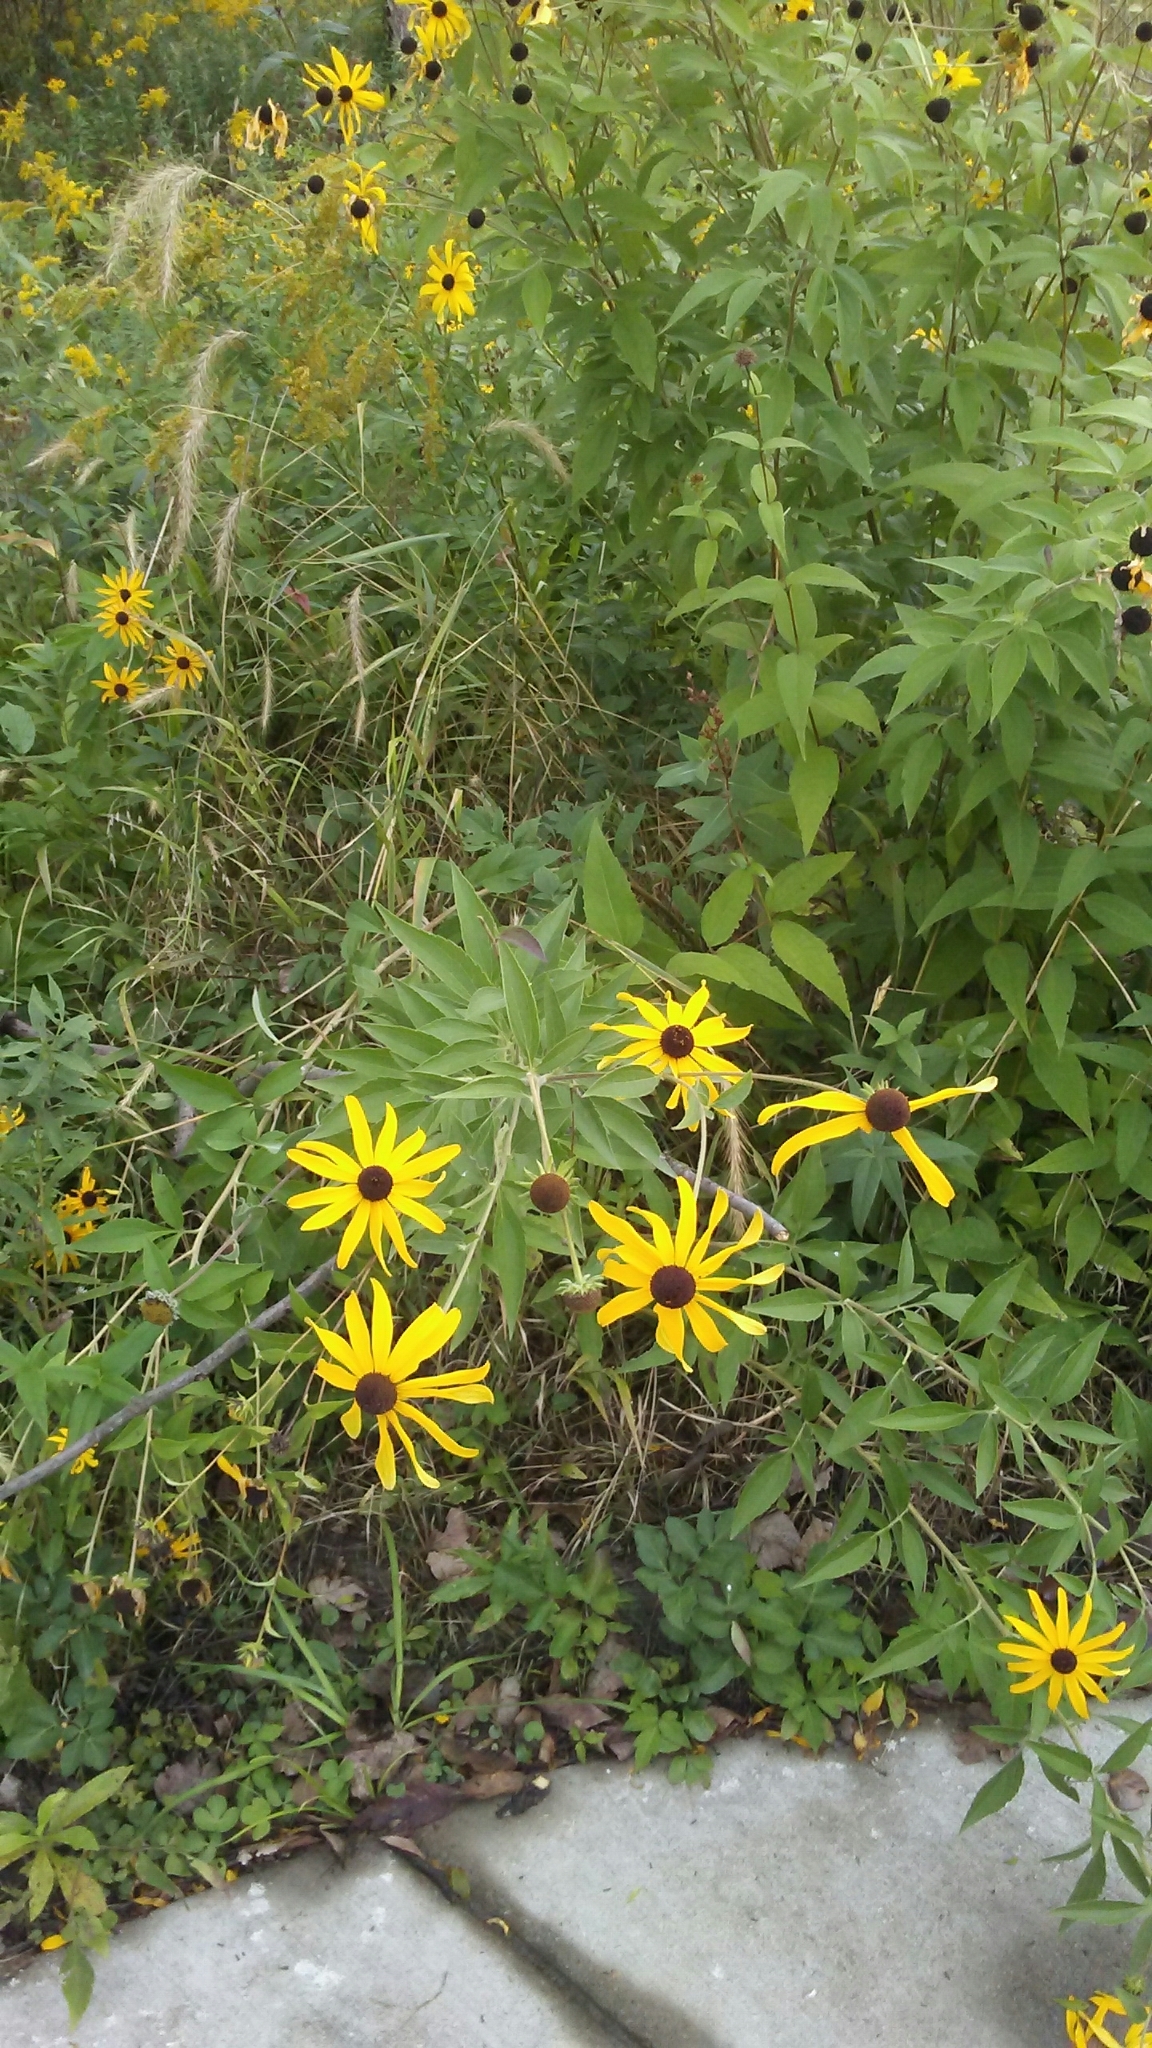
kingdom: Plantae
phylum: Tracheophyta
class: Magnoliopsida
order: Asterales
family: Asteraceae
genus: Rudbeckia
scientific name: Rudbeckia subtomentosa
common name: Sweet coneflower
